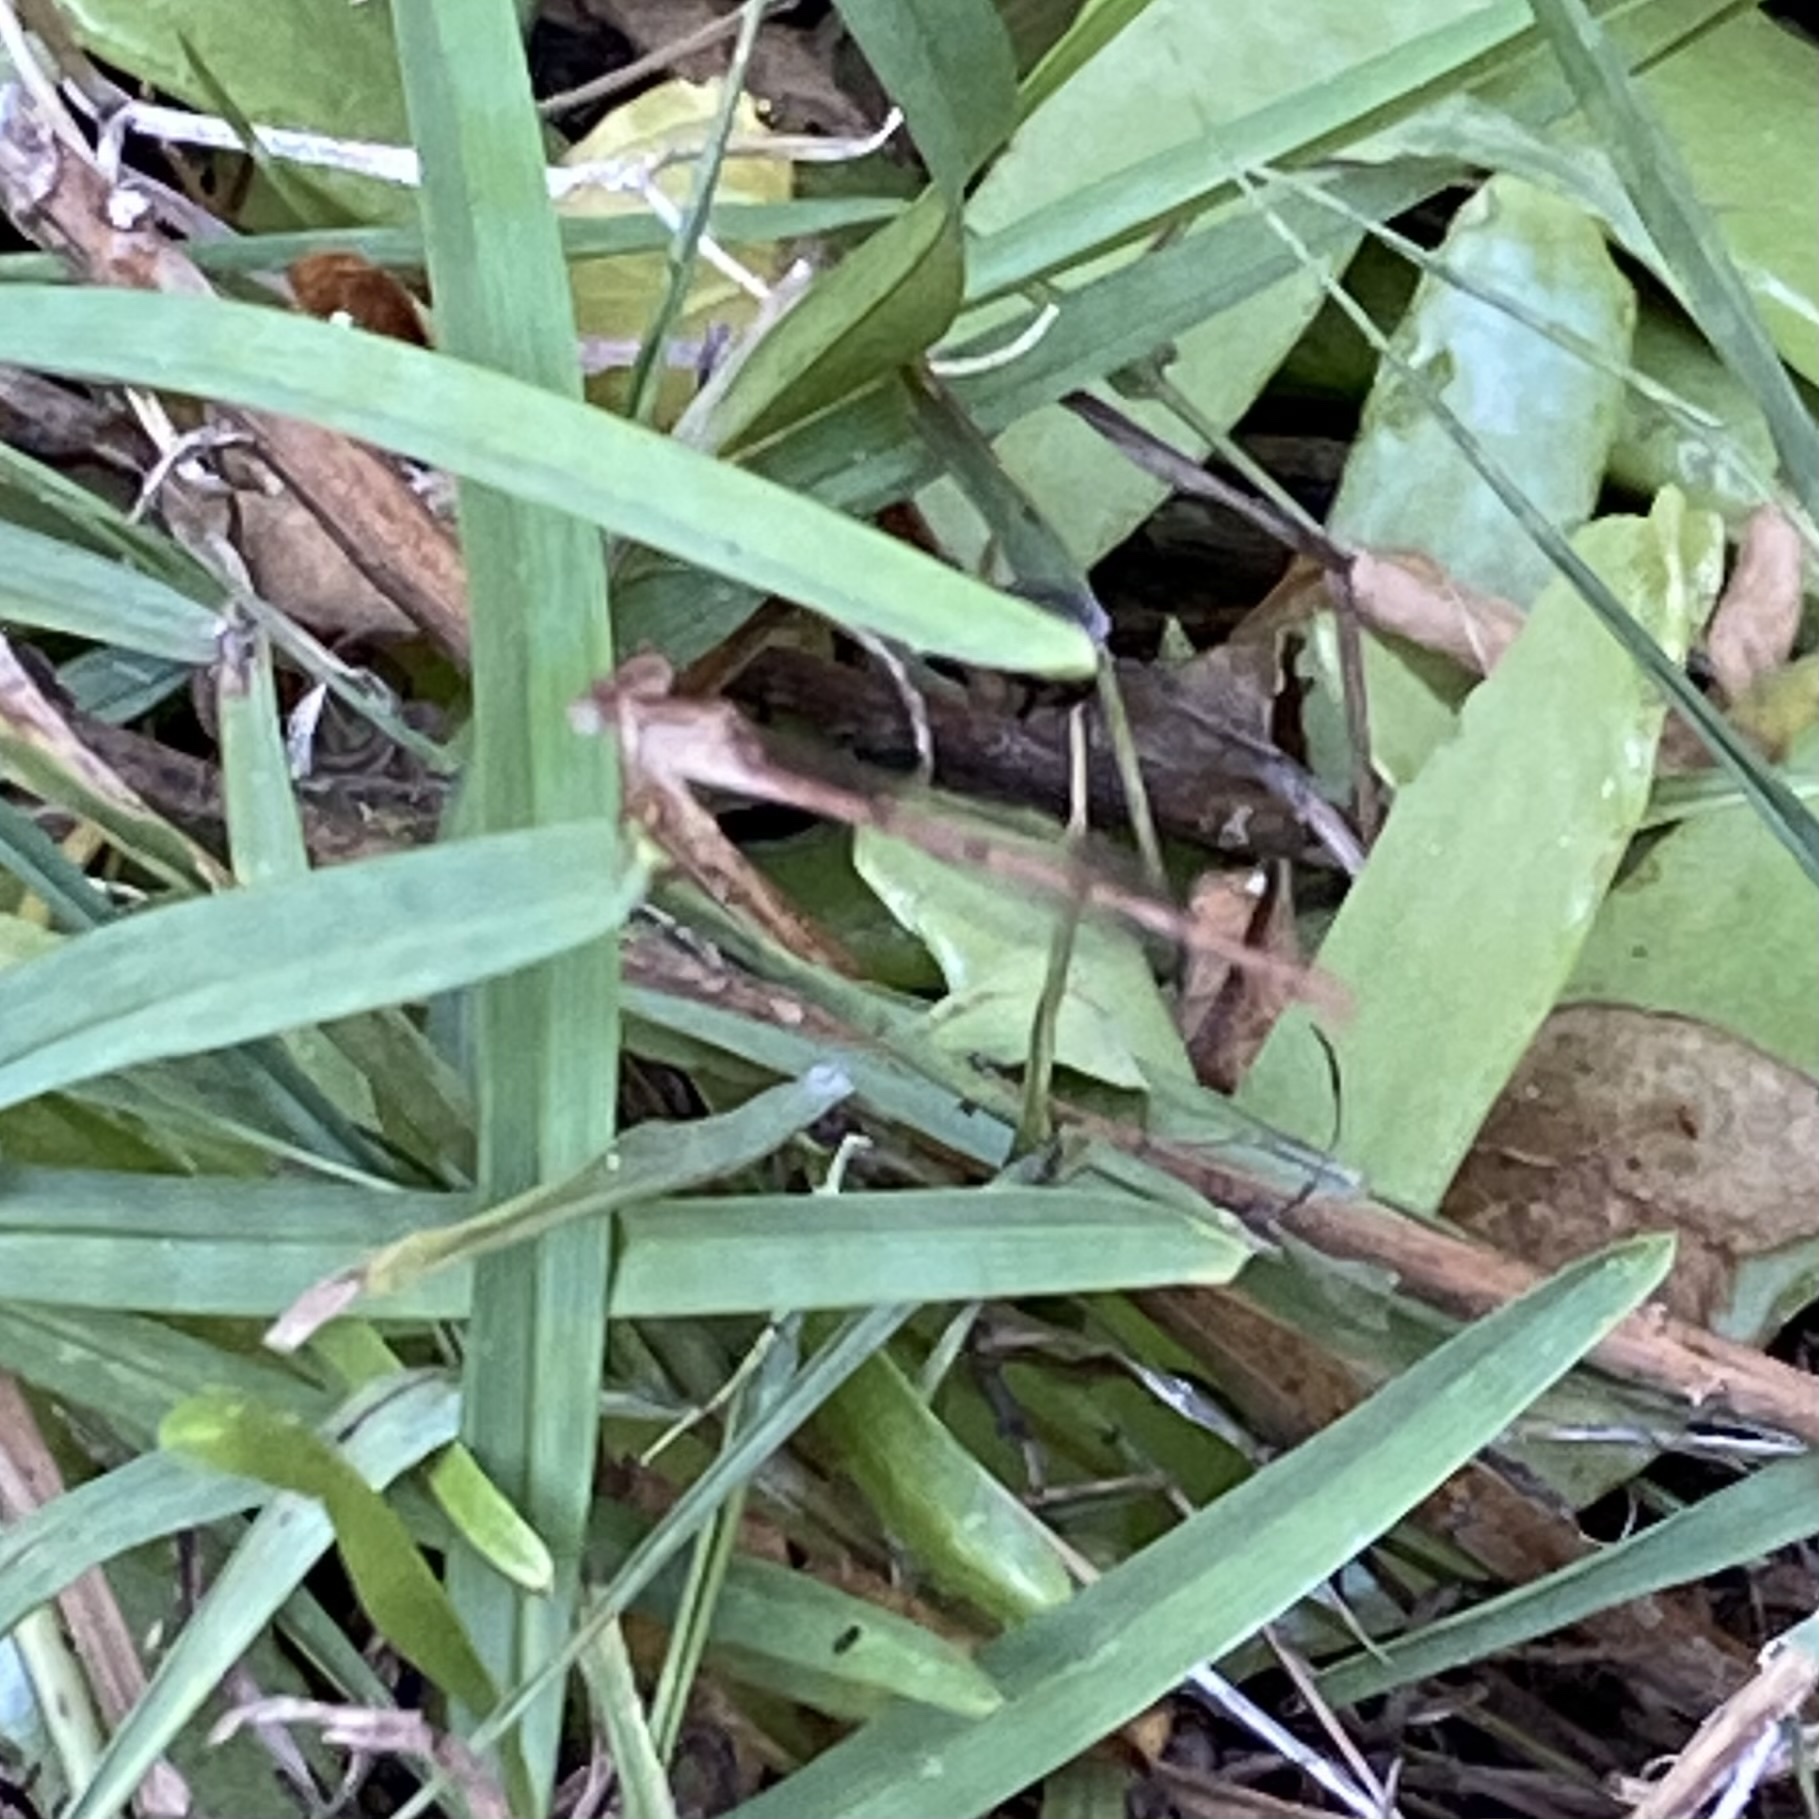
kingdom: Animalia
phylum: Arthropoda
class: Insecta
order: Odonata
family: Coenagrionidae
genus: Ceriagrion
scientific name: Ceriagrion glabrum
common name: Common pond damsel
